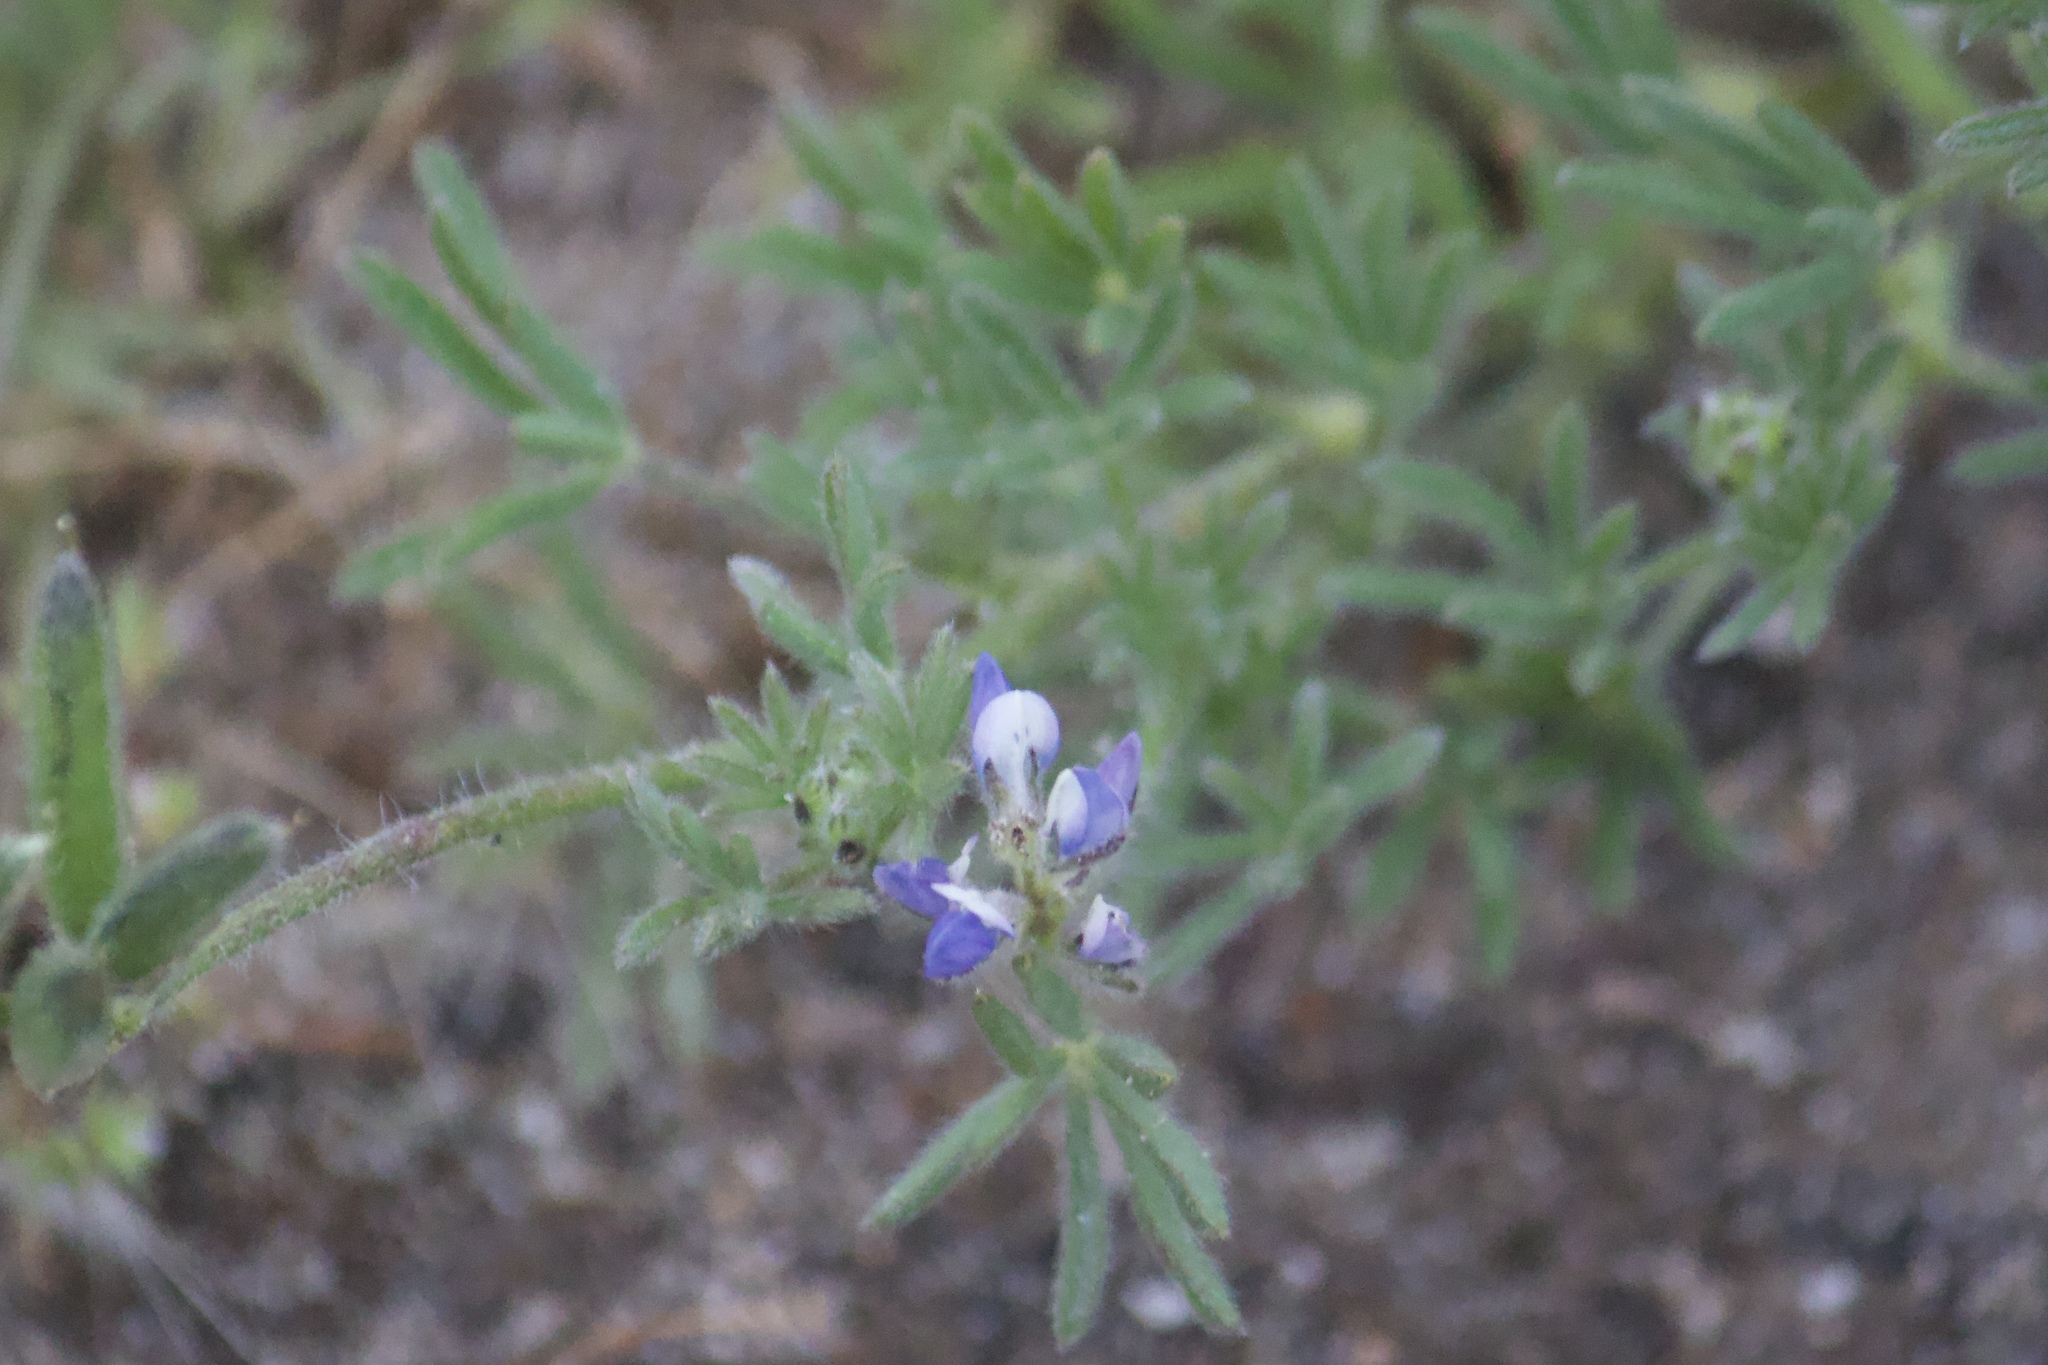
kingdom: Plantae
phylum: Tracheophyta
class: Magnoliopsida
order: Fabales
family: Fabaceae
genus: Lupinus
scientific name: Lupinus bicolor
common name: Miniature lupine
